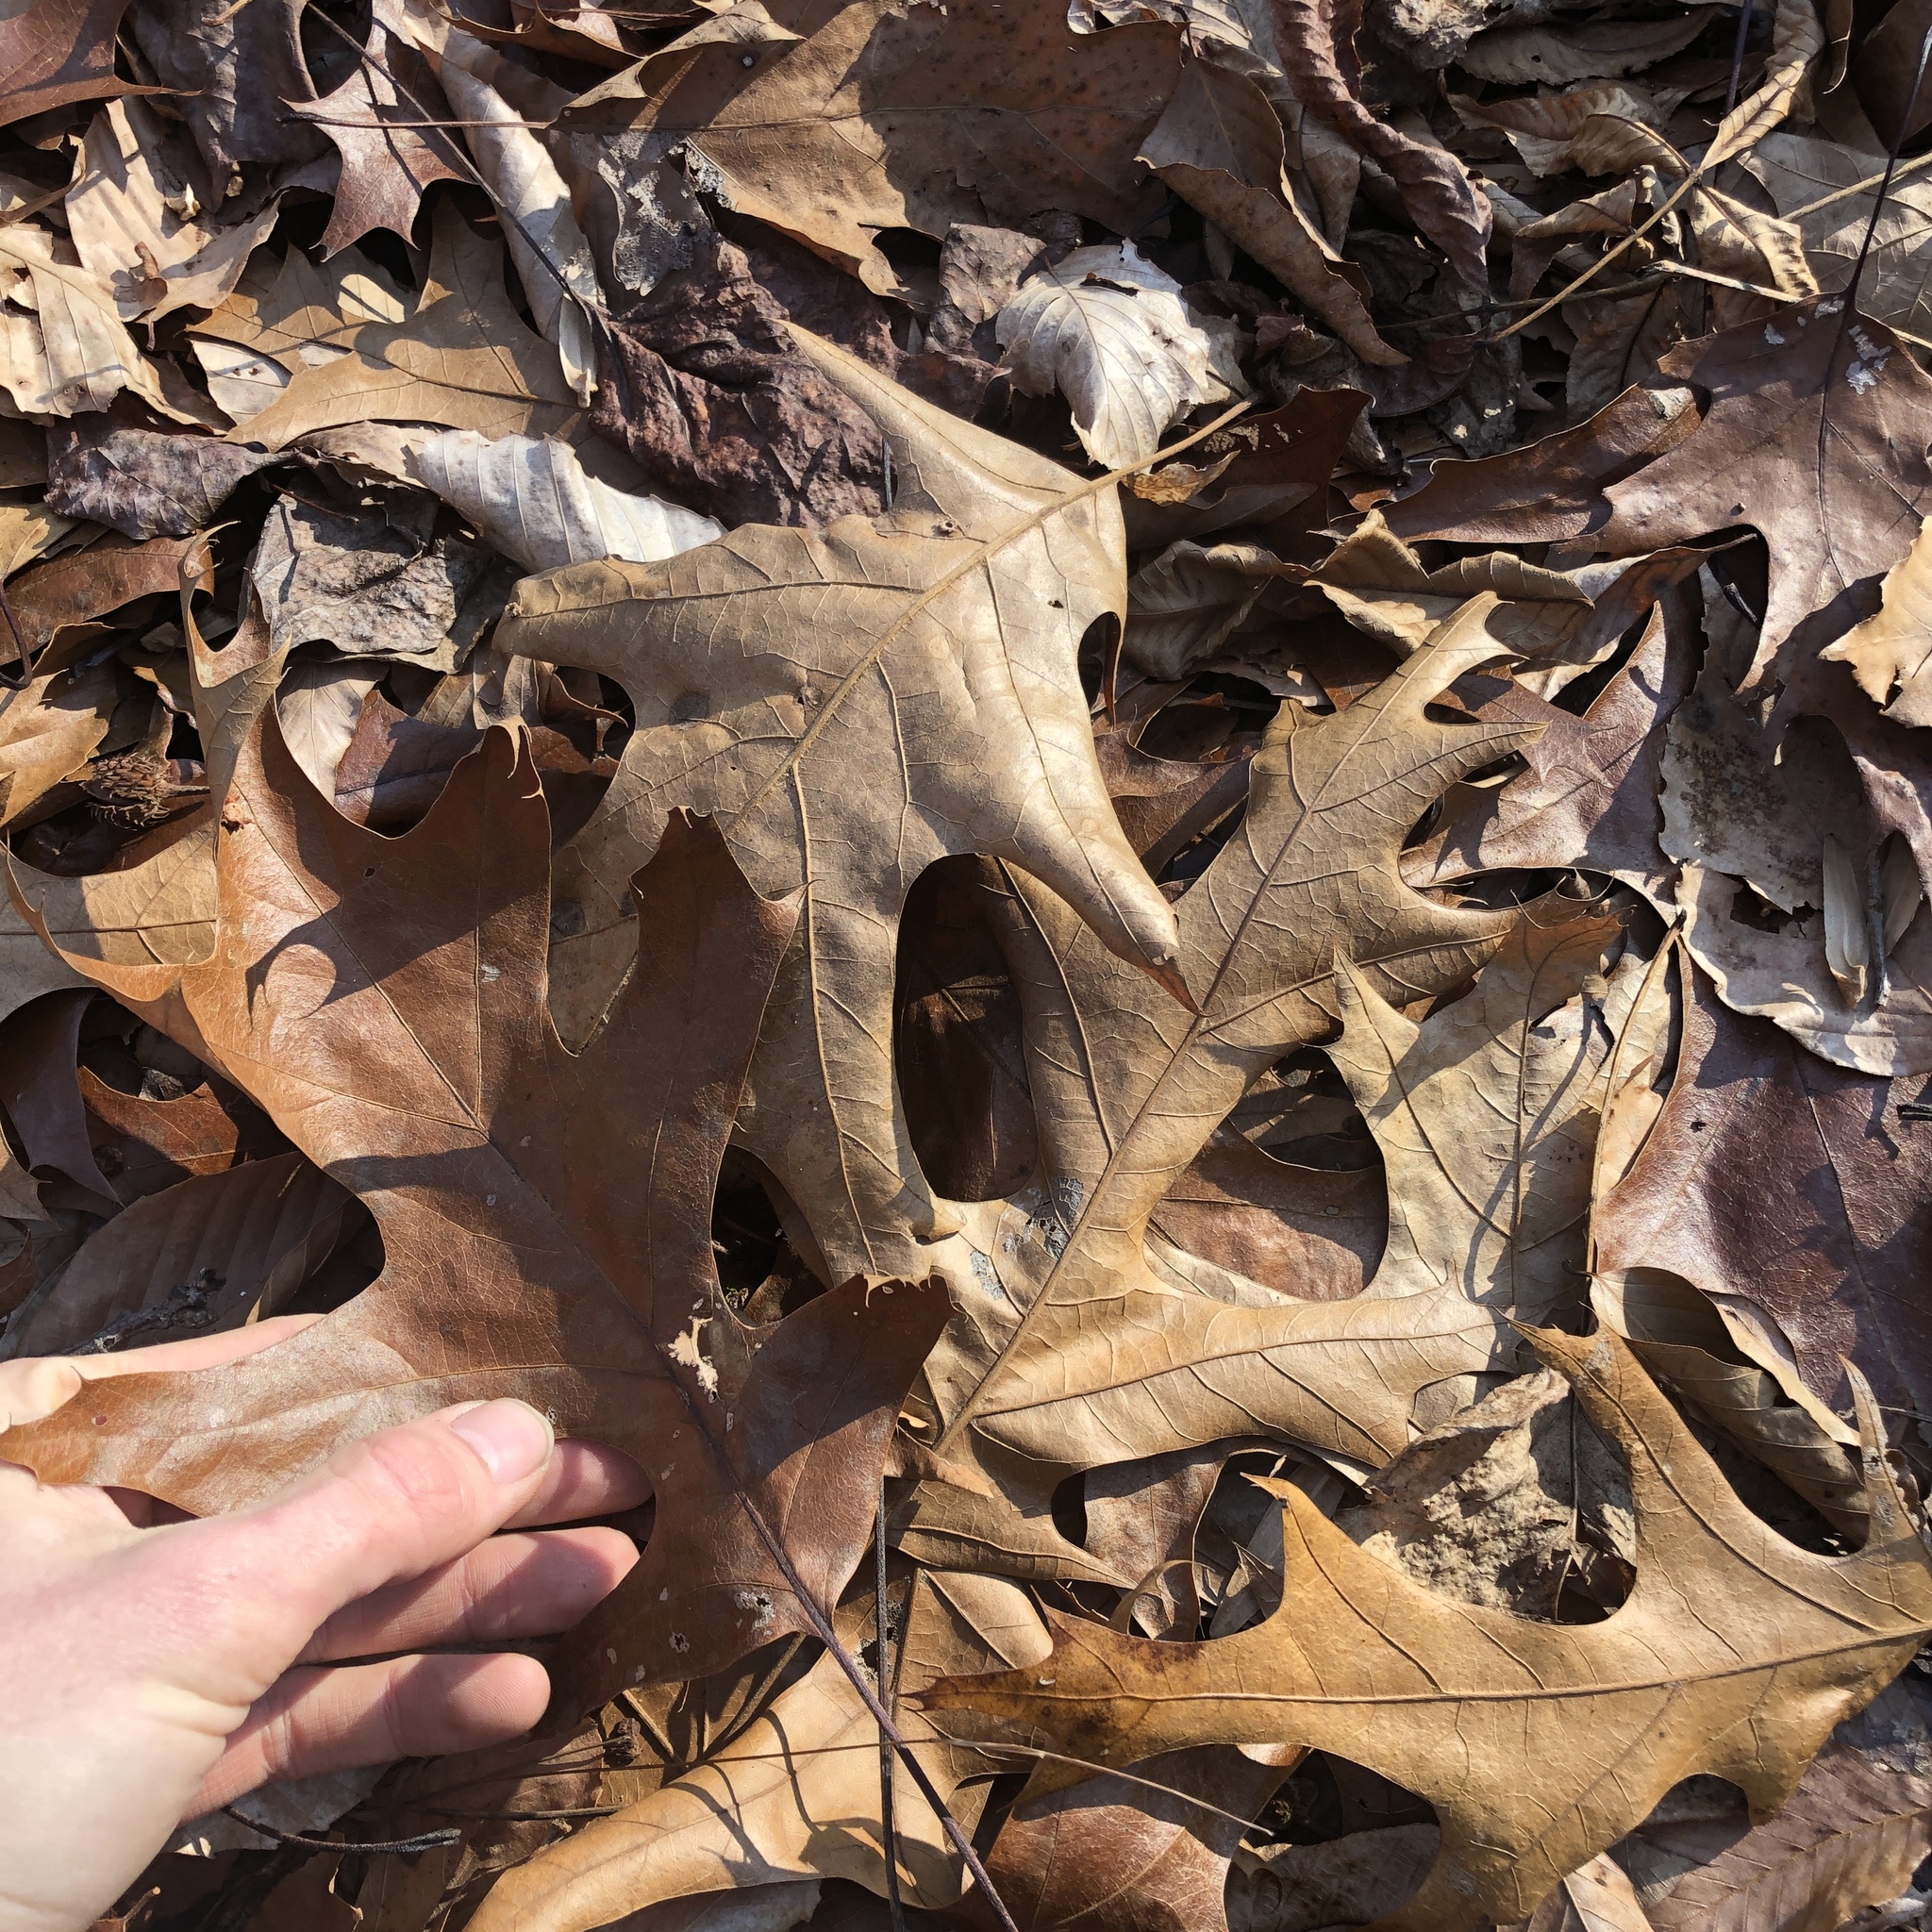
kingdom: Plantae
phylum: Tracheophyta
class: Magnoliopsida
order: Fagales
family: Fagaceae
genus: Quercus
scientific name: Quercus velutina
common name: Black oak
